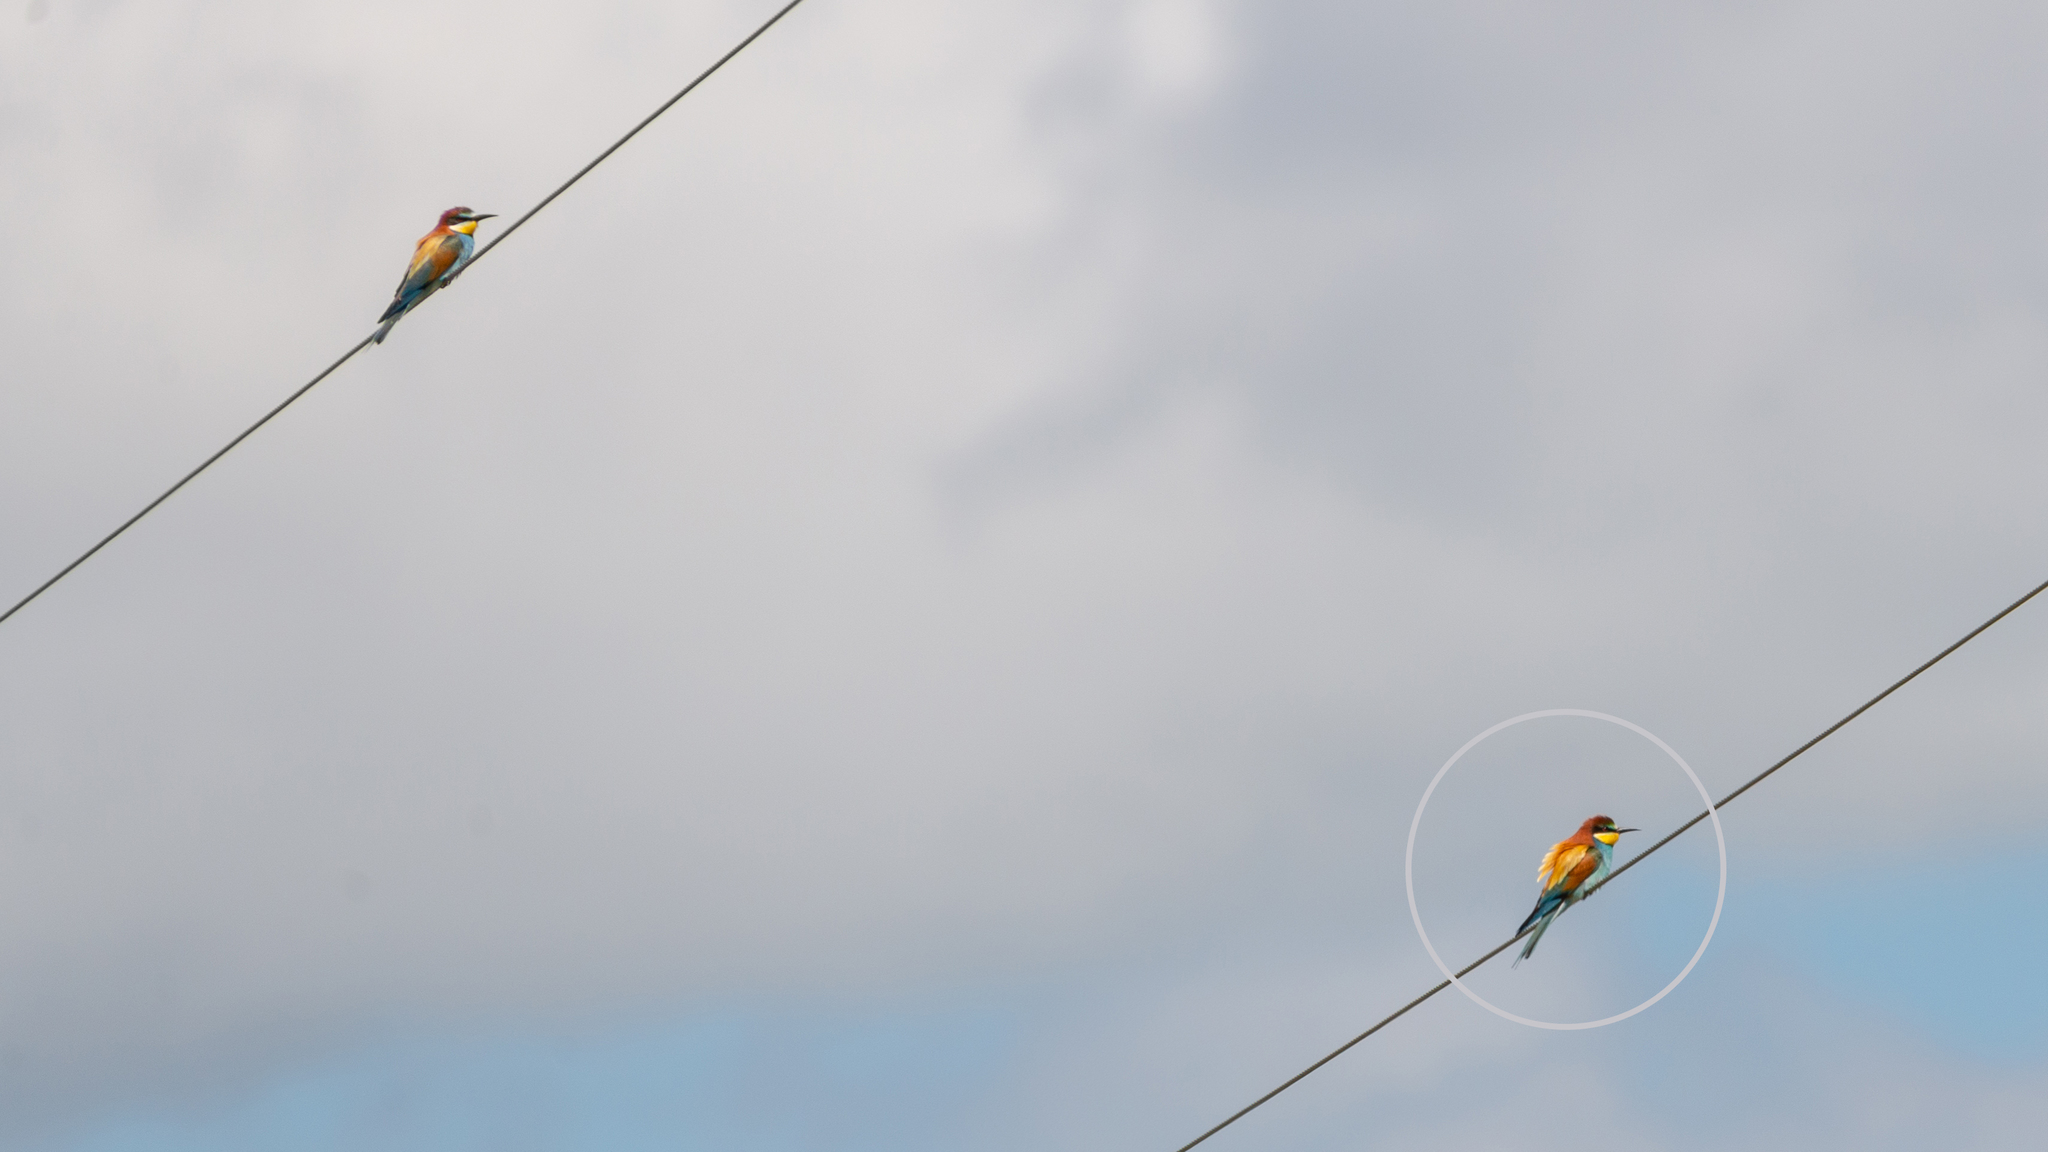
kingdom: Animalia
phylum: Chordata
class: Aves
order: Coraciiformes
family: Meropidae
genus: Merops
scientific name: Merops apiaster
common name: European bee-eater
